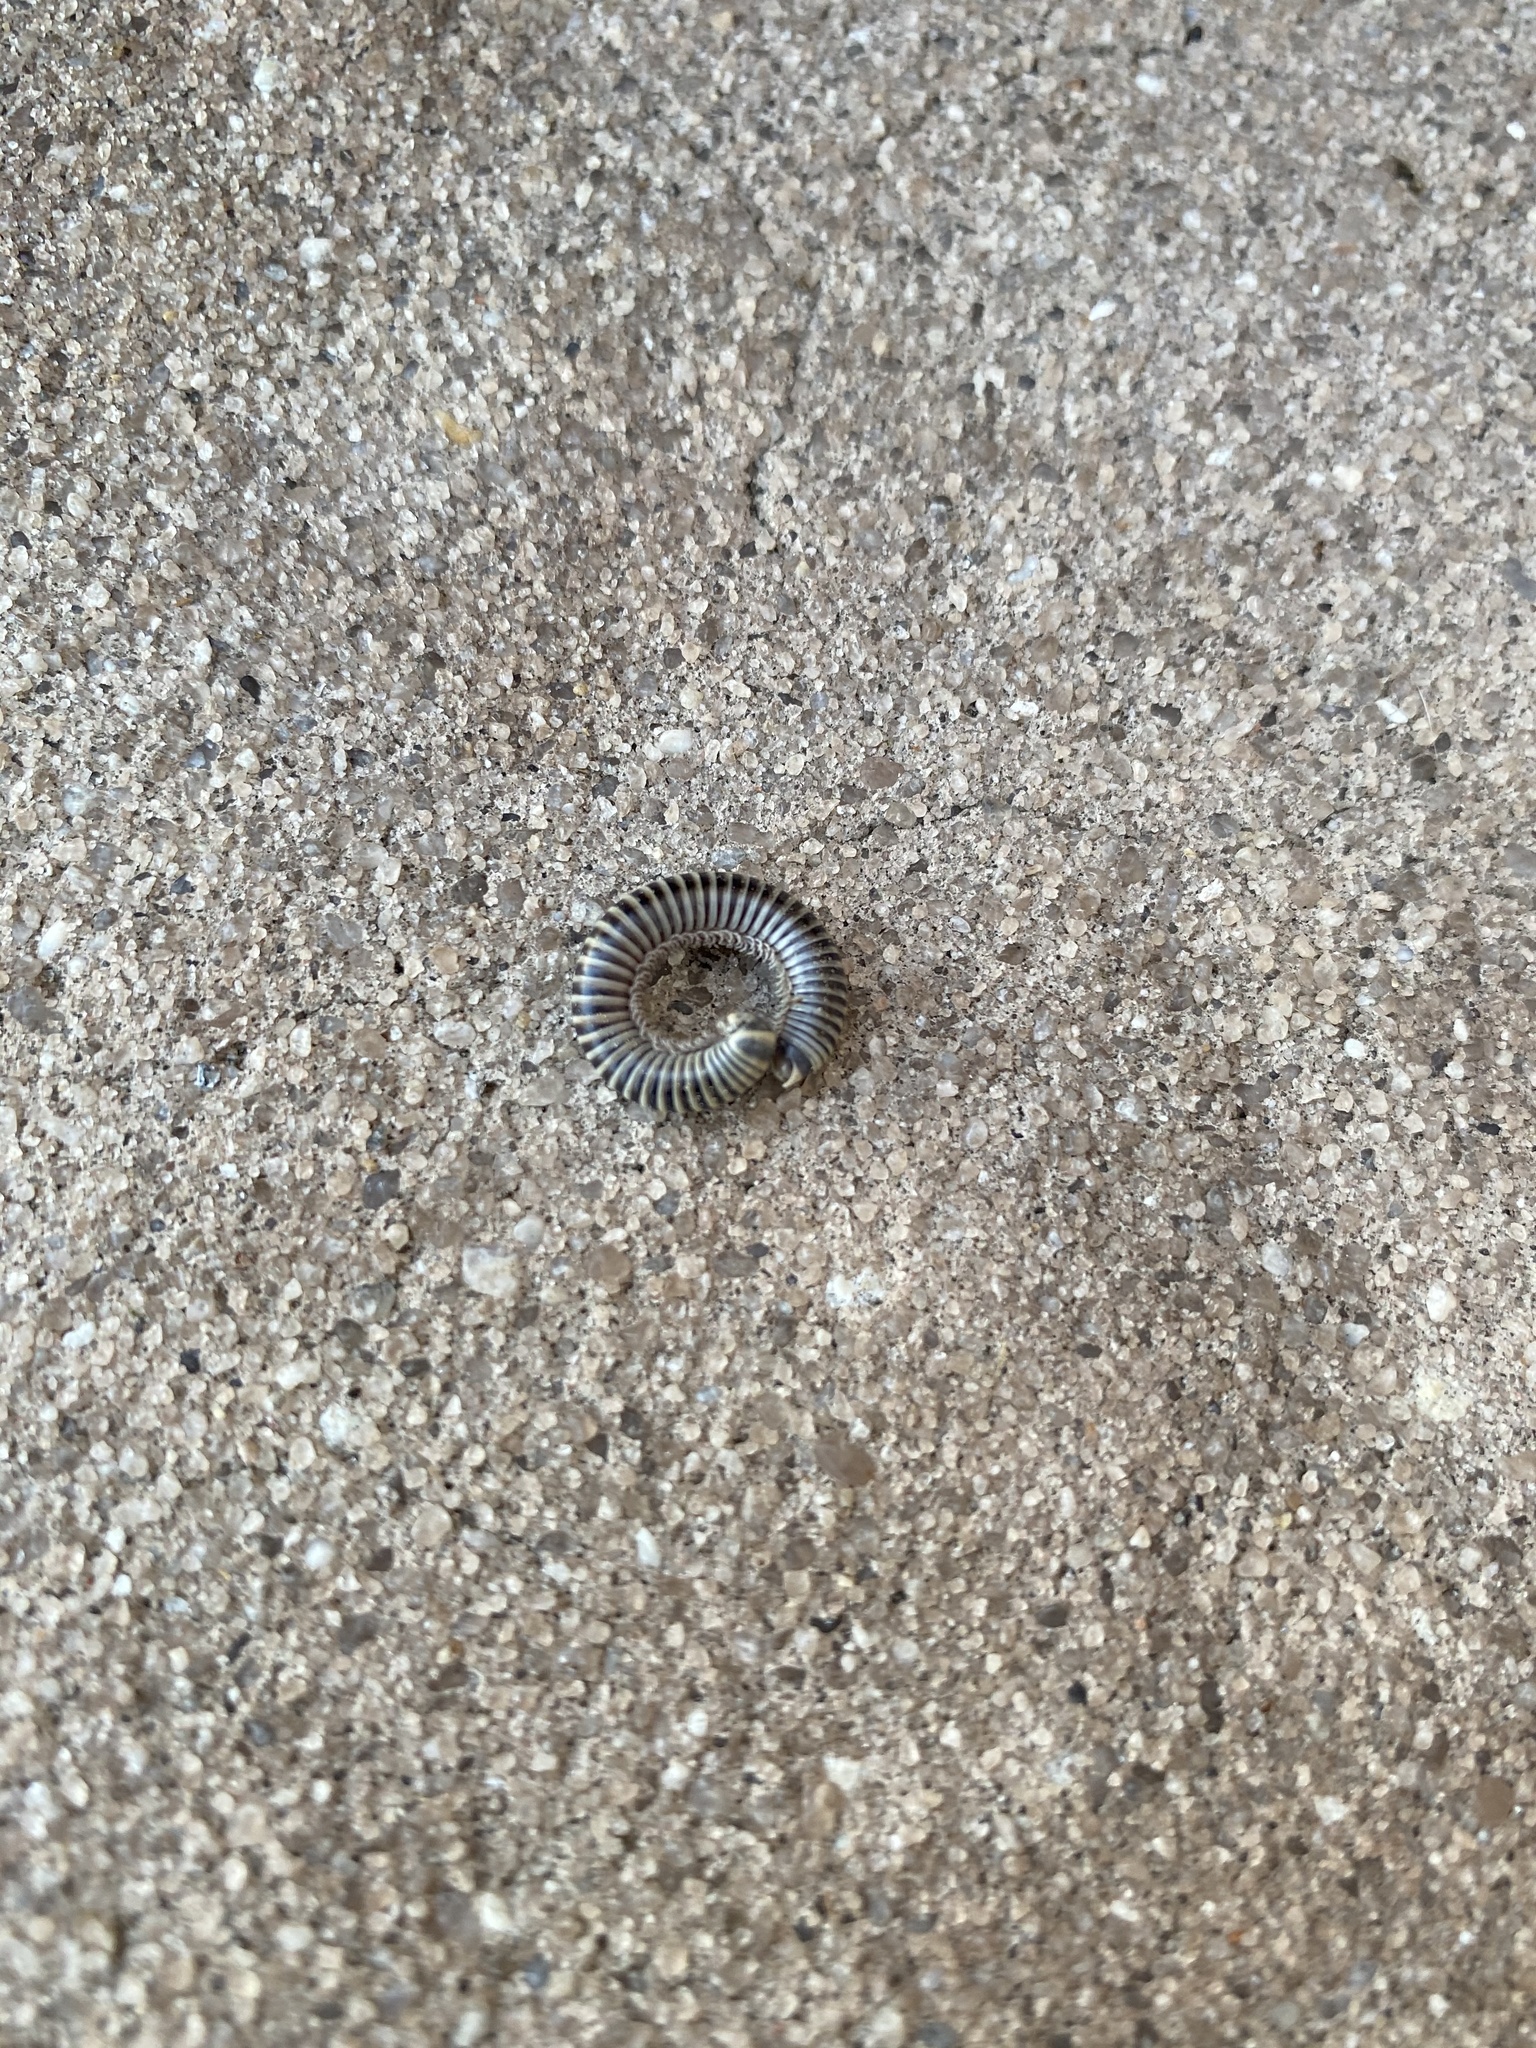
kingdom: Animalia
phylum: Arthropoda
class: Diplopoda
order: Spirobolida
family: Rhinocricidae
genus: Anadenobolus
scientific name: Anadenobolus monilicornis
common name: Caribbean millipede
